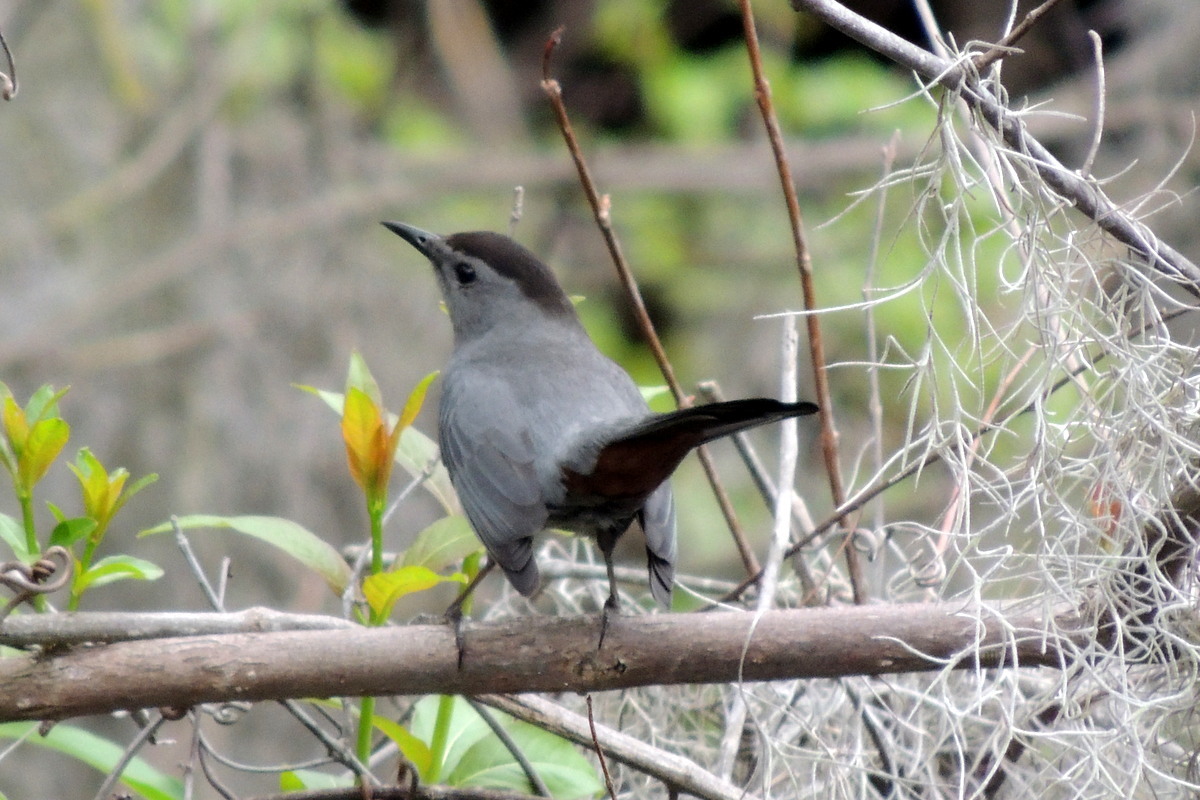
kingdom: Animalia
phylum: Chordata
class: Aves
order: Passeriformes
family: Mimidae
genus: Dumetella
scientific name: Dumetella carolinensis
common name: Gray catbird
